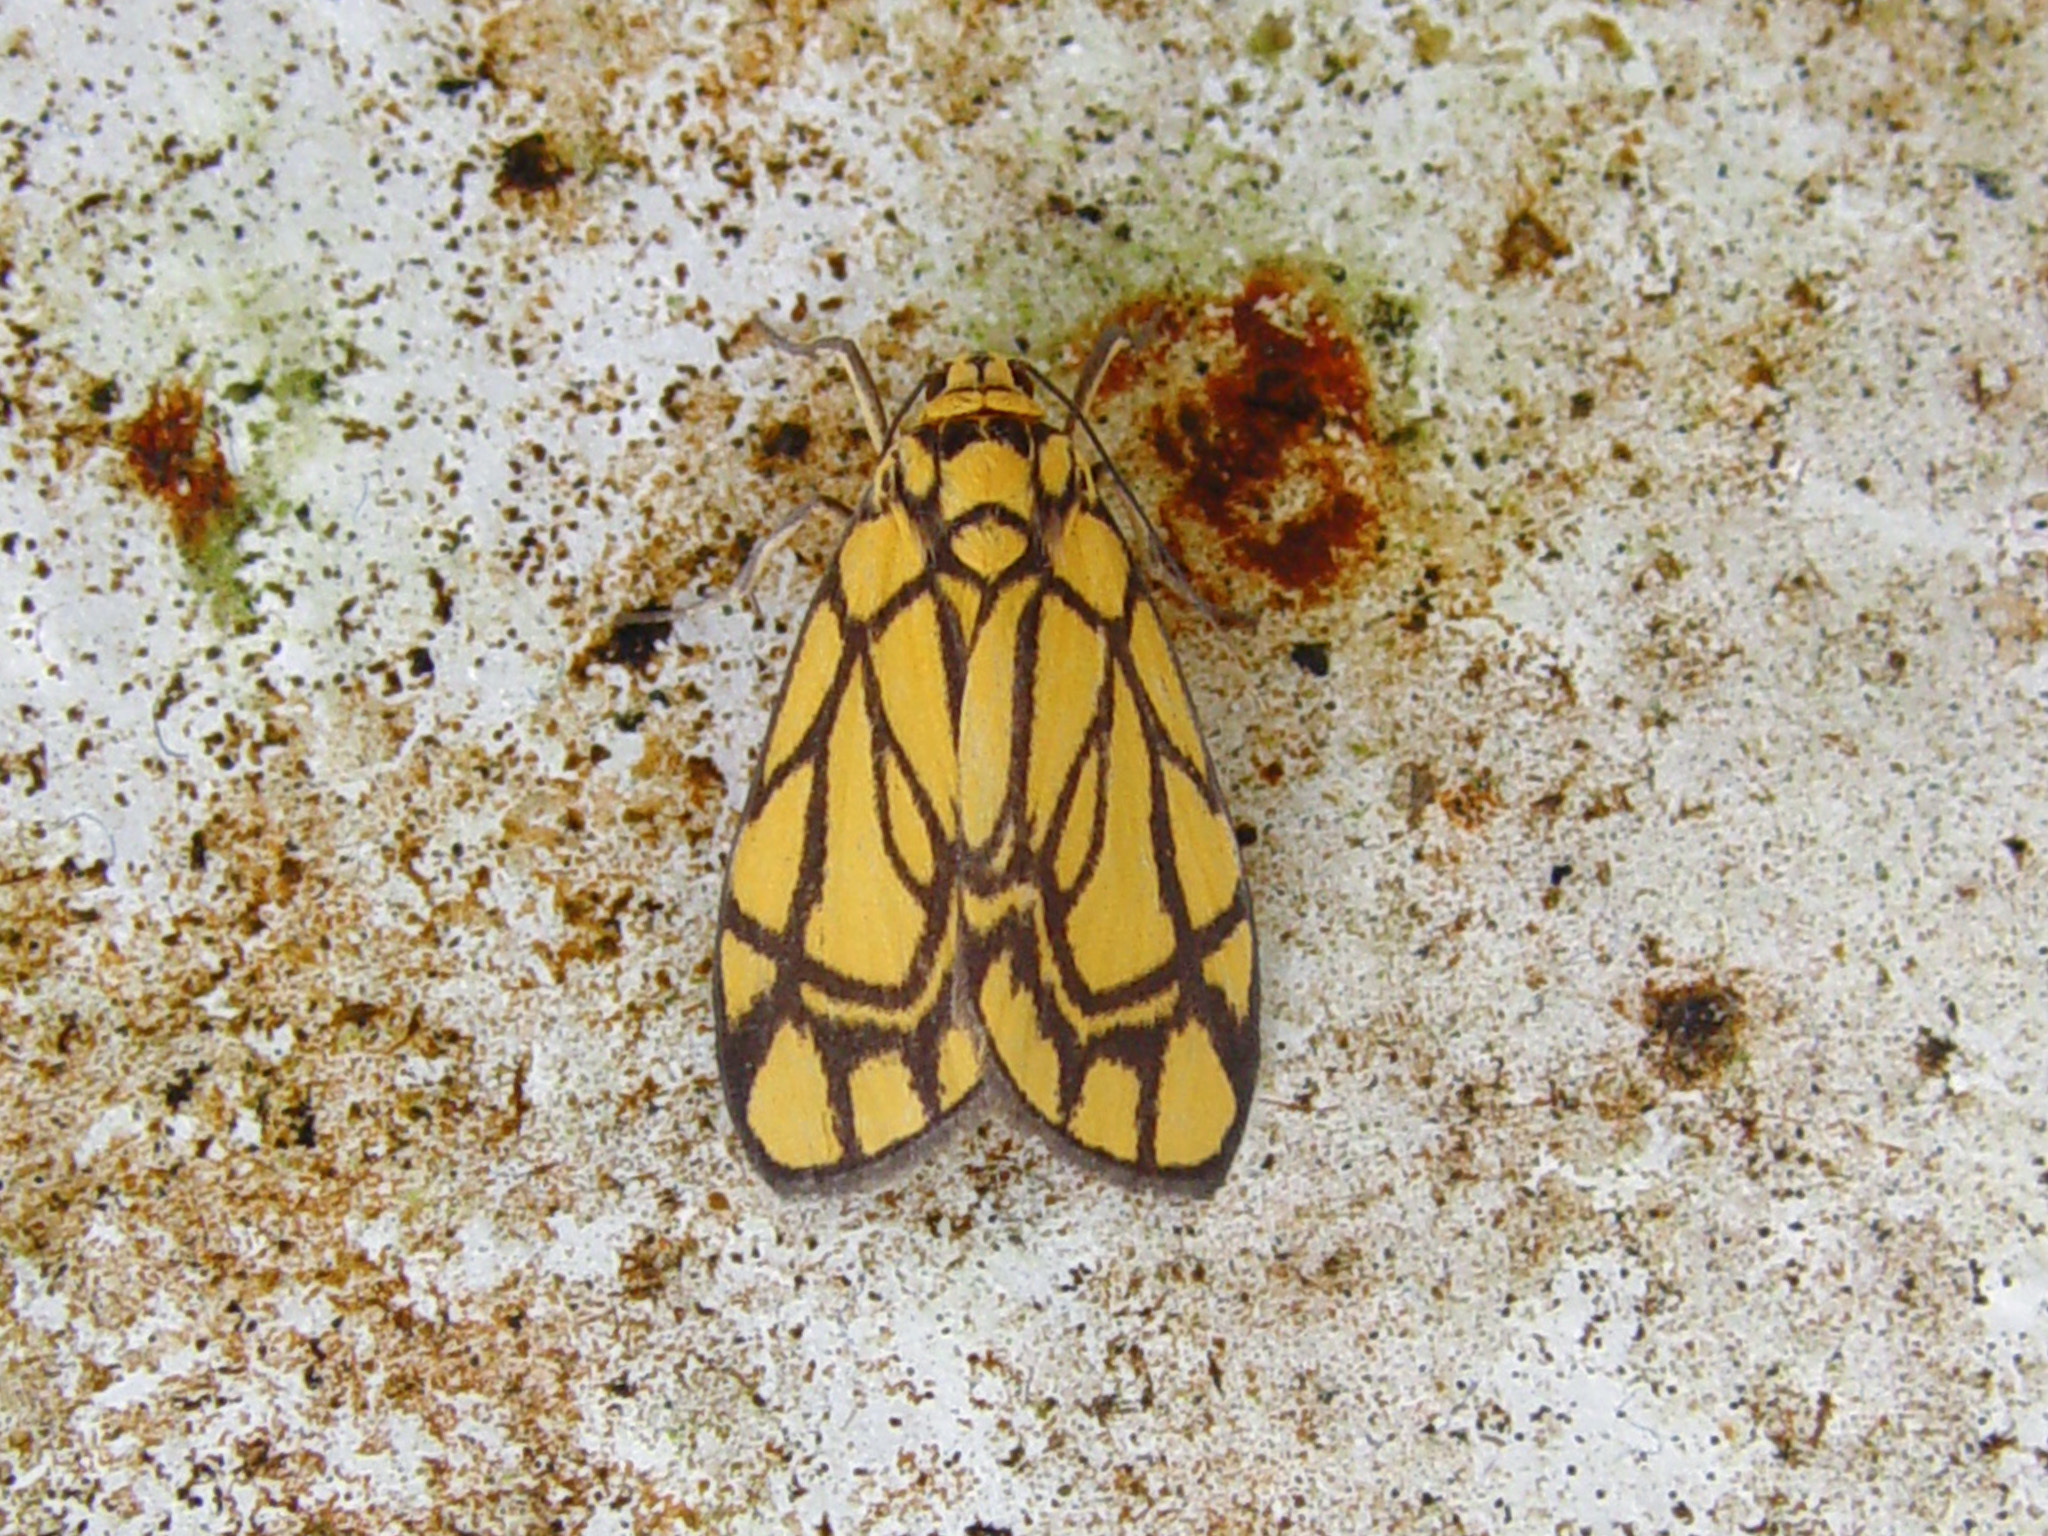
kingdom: Animalia
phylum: Arthropoda
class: Insecta
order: Lepidoptera
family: Erebidae
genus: Cyme
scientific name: Cyme euprepioides
